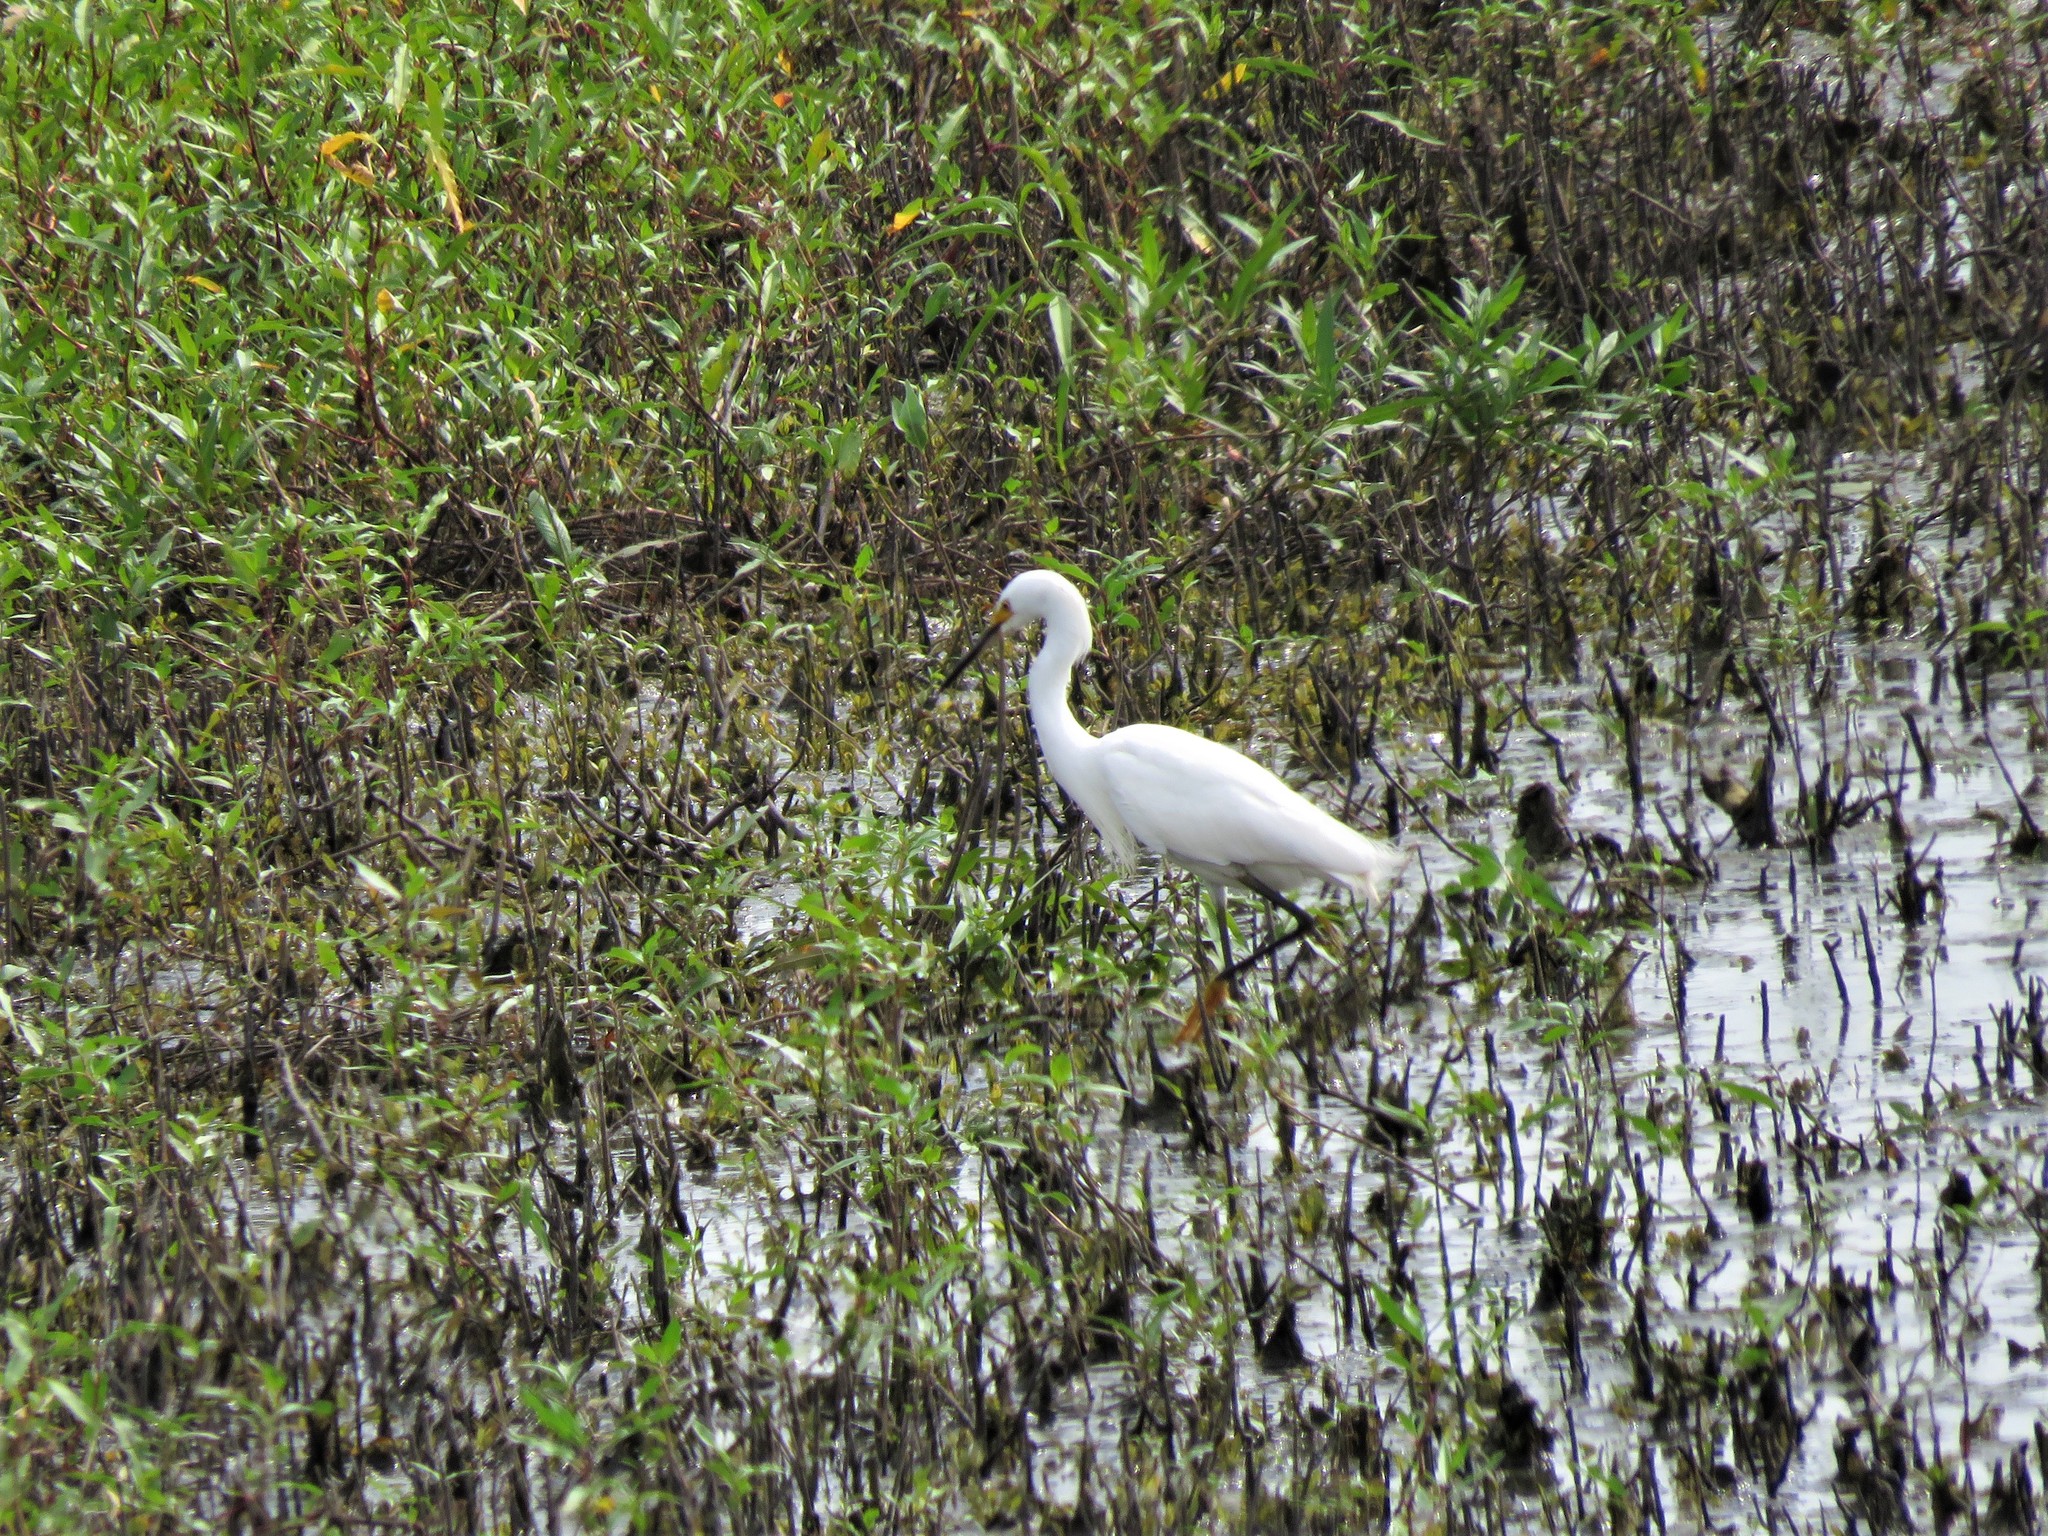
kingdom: Animalia
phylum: Chordata
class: Aves
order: Pelecaniformes
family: Ardeidae
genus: Egretta
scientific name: Egretta thula
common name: Snowy egret
